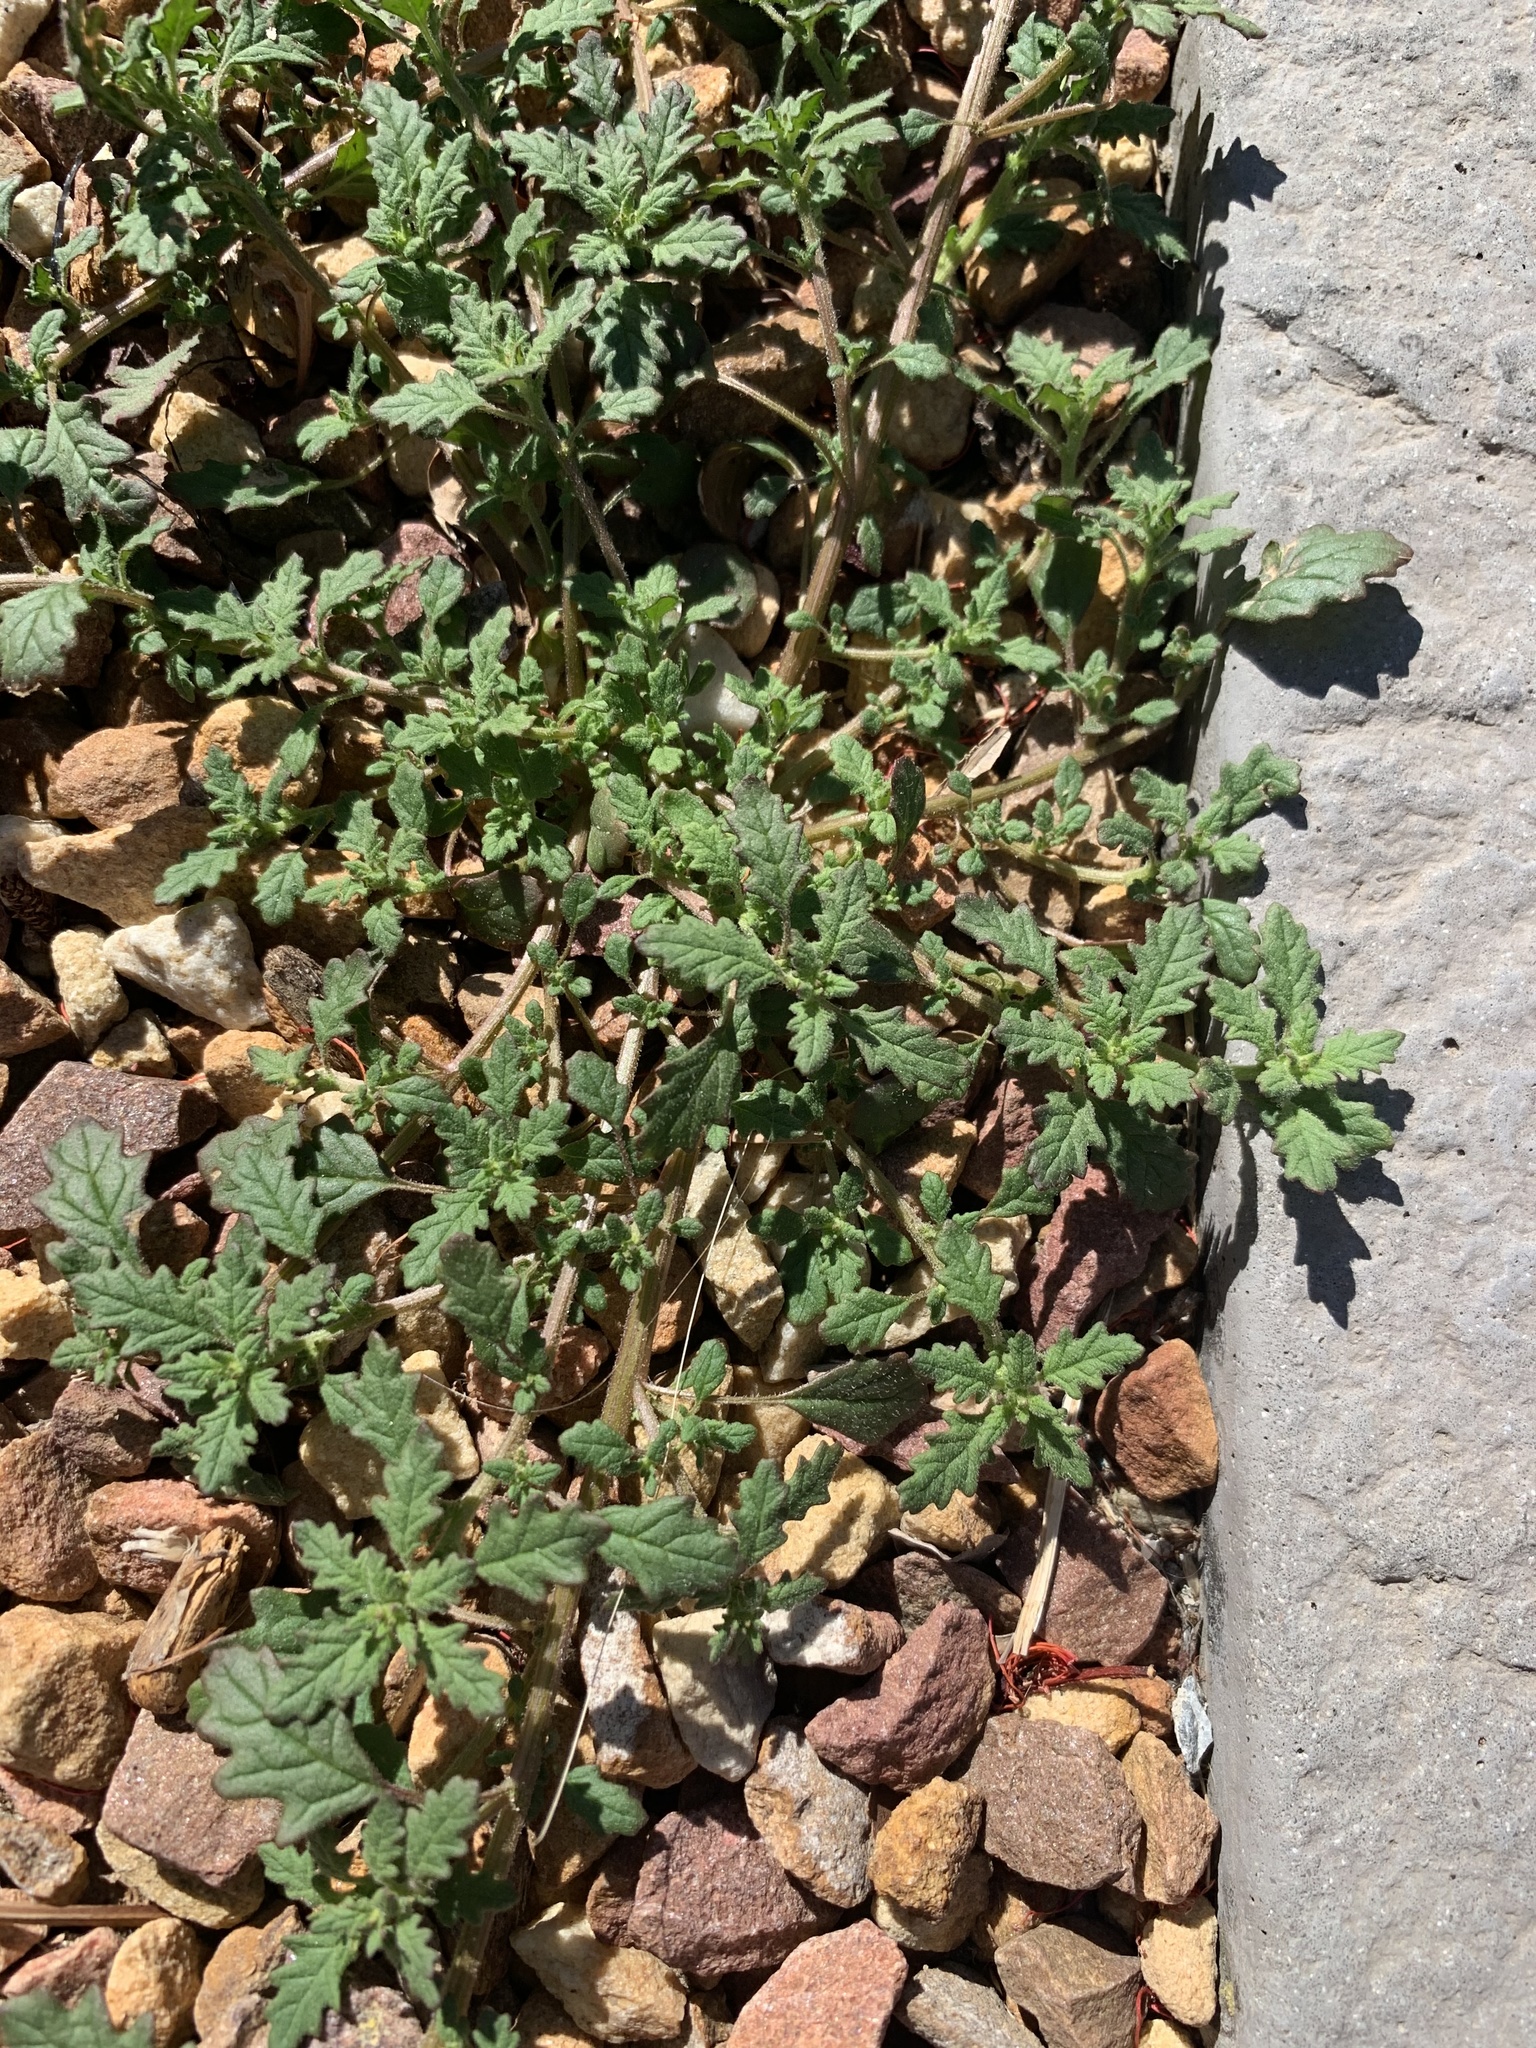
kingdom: Plantae
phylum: Tracheophyta
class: Magnoliopsida
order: Caryophyllales
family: Amaranthaceae
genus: Dysphania
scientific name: Dysphania pumilio
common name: Clammy goosefoot
